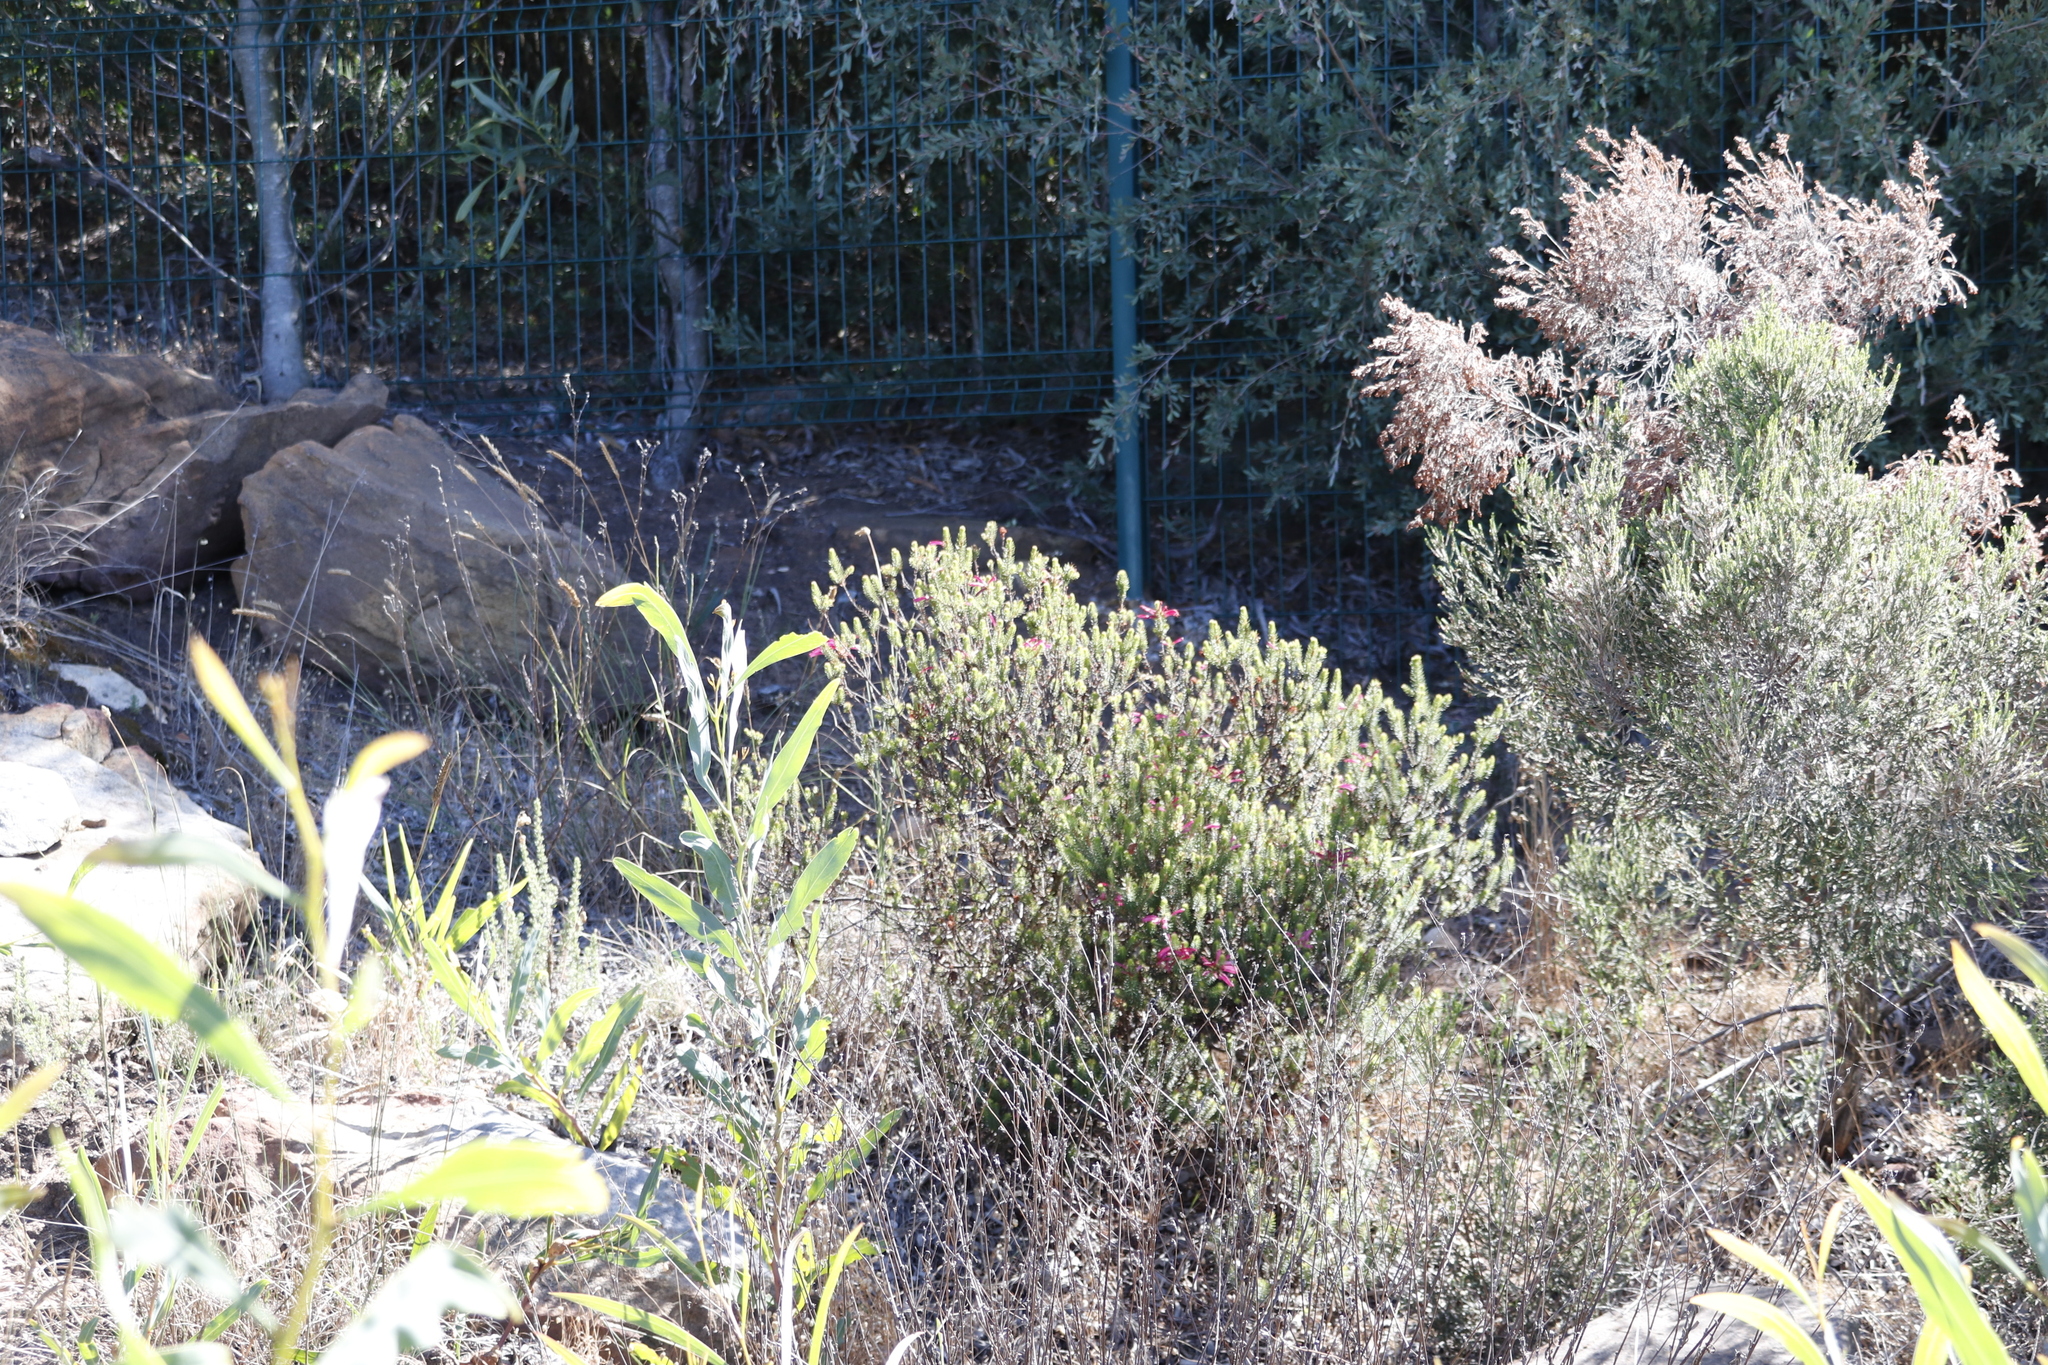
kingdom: Plantae
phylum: Tracheophyta
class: Magnoliopsida
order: Ericales
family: Ericaceae
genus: Erica
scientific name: Erica abietina
